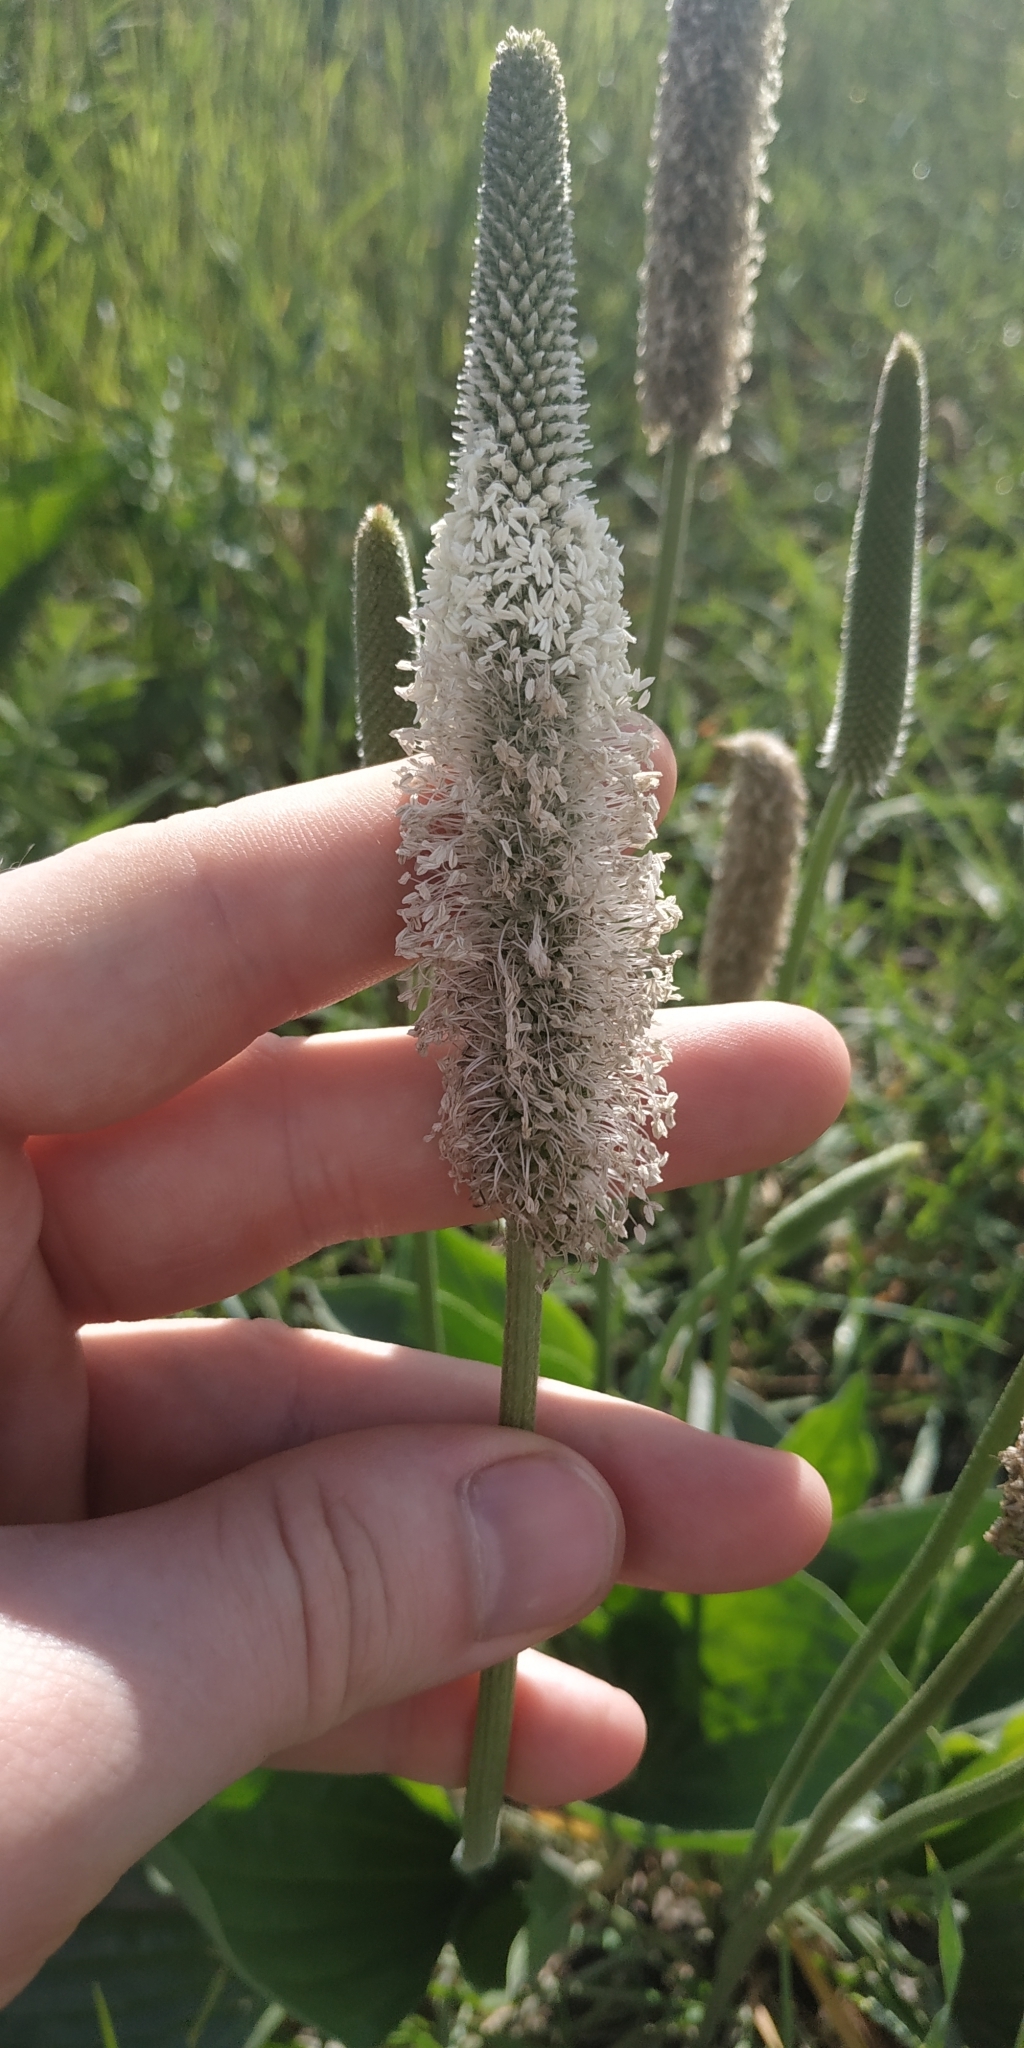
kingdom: Plantae
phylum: Tracheophyta
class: Magnoliopsida
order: Lamiales
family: Plantaginaceae
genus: Plantago
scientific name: Plantago maxima
